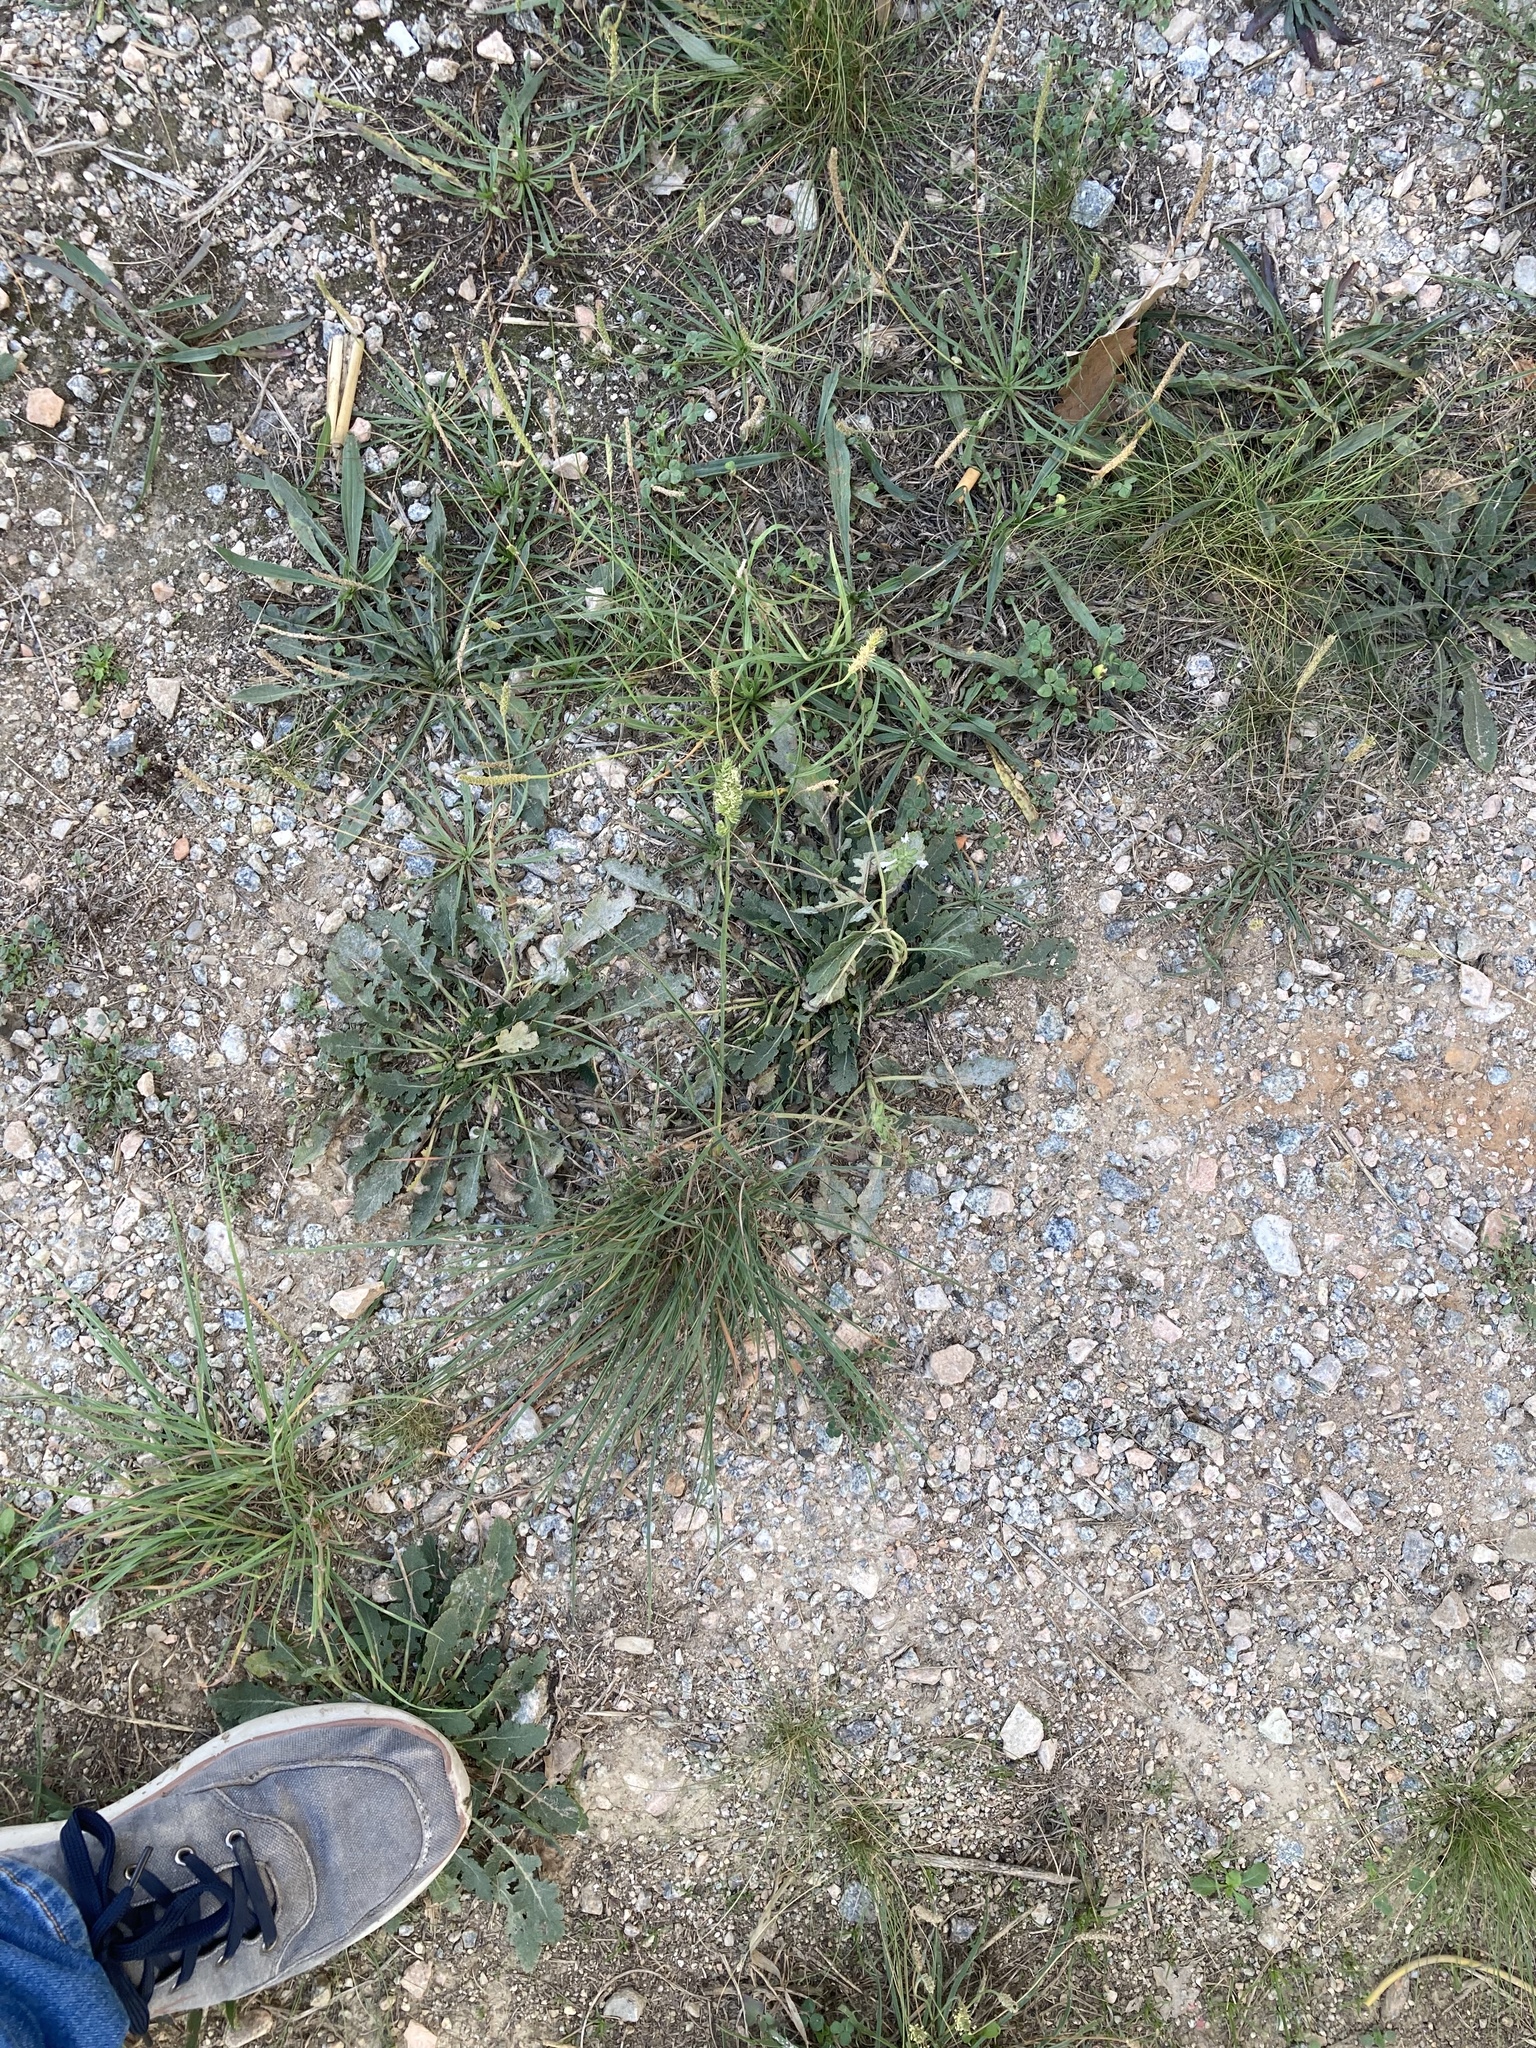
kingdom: Plantae
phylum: Tracheophyta
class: Liliopsida
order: Poales
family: Poaceae
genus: Dactylis
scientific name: Dactylis glomerata
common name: Orchardgrass
